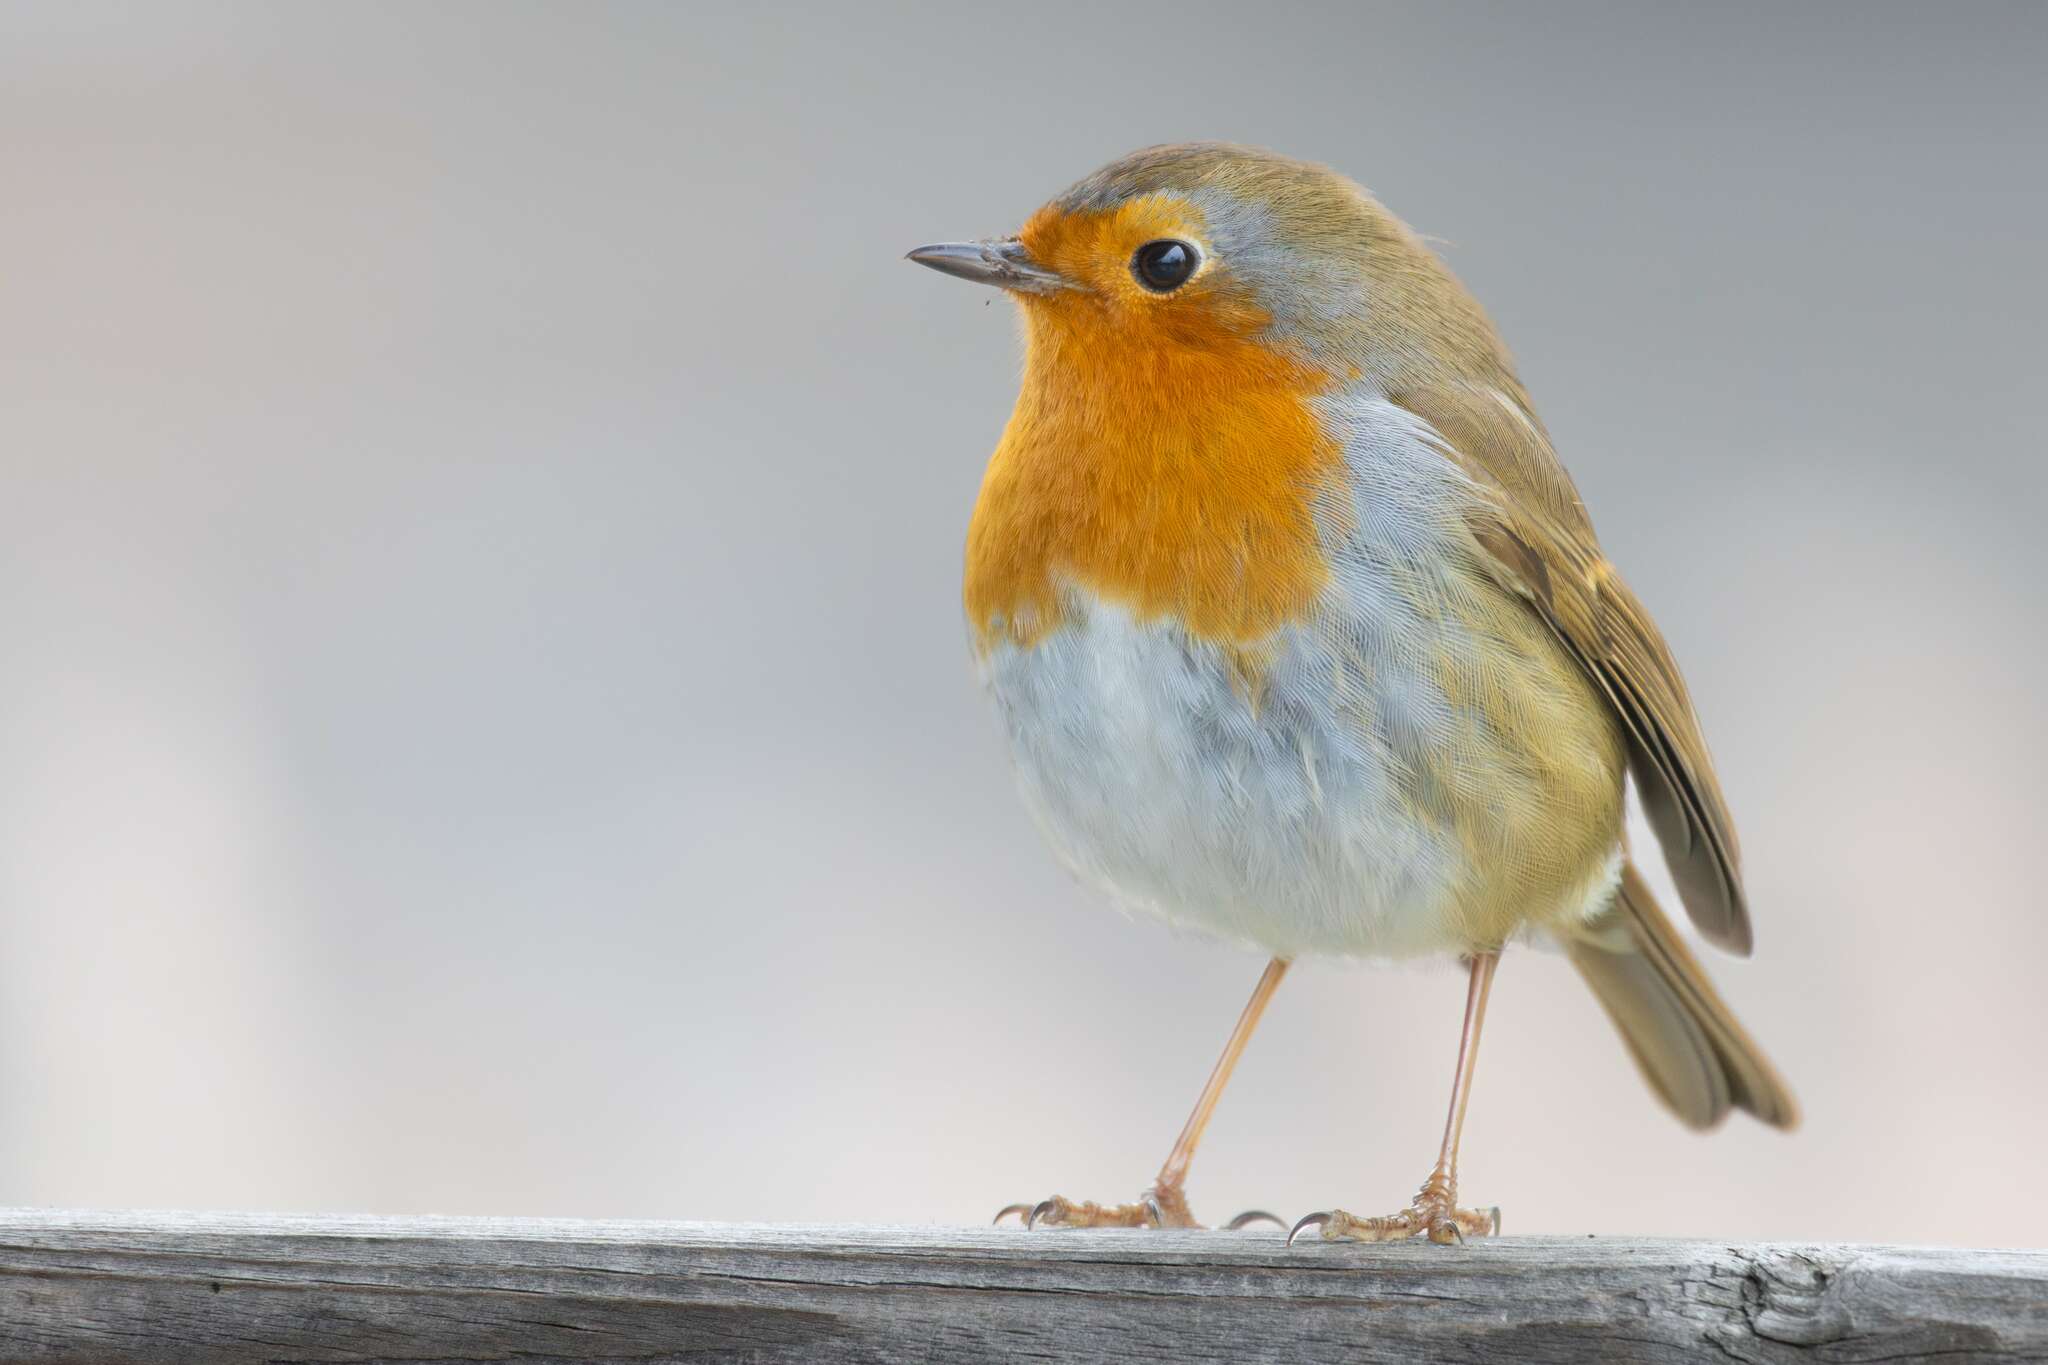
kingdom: Animalia
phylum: Chordata
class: Aves
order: Passeriformes
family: Muscicapidae
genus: Erithacus
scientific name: Erithacus rubecula
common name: European robin
